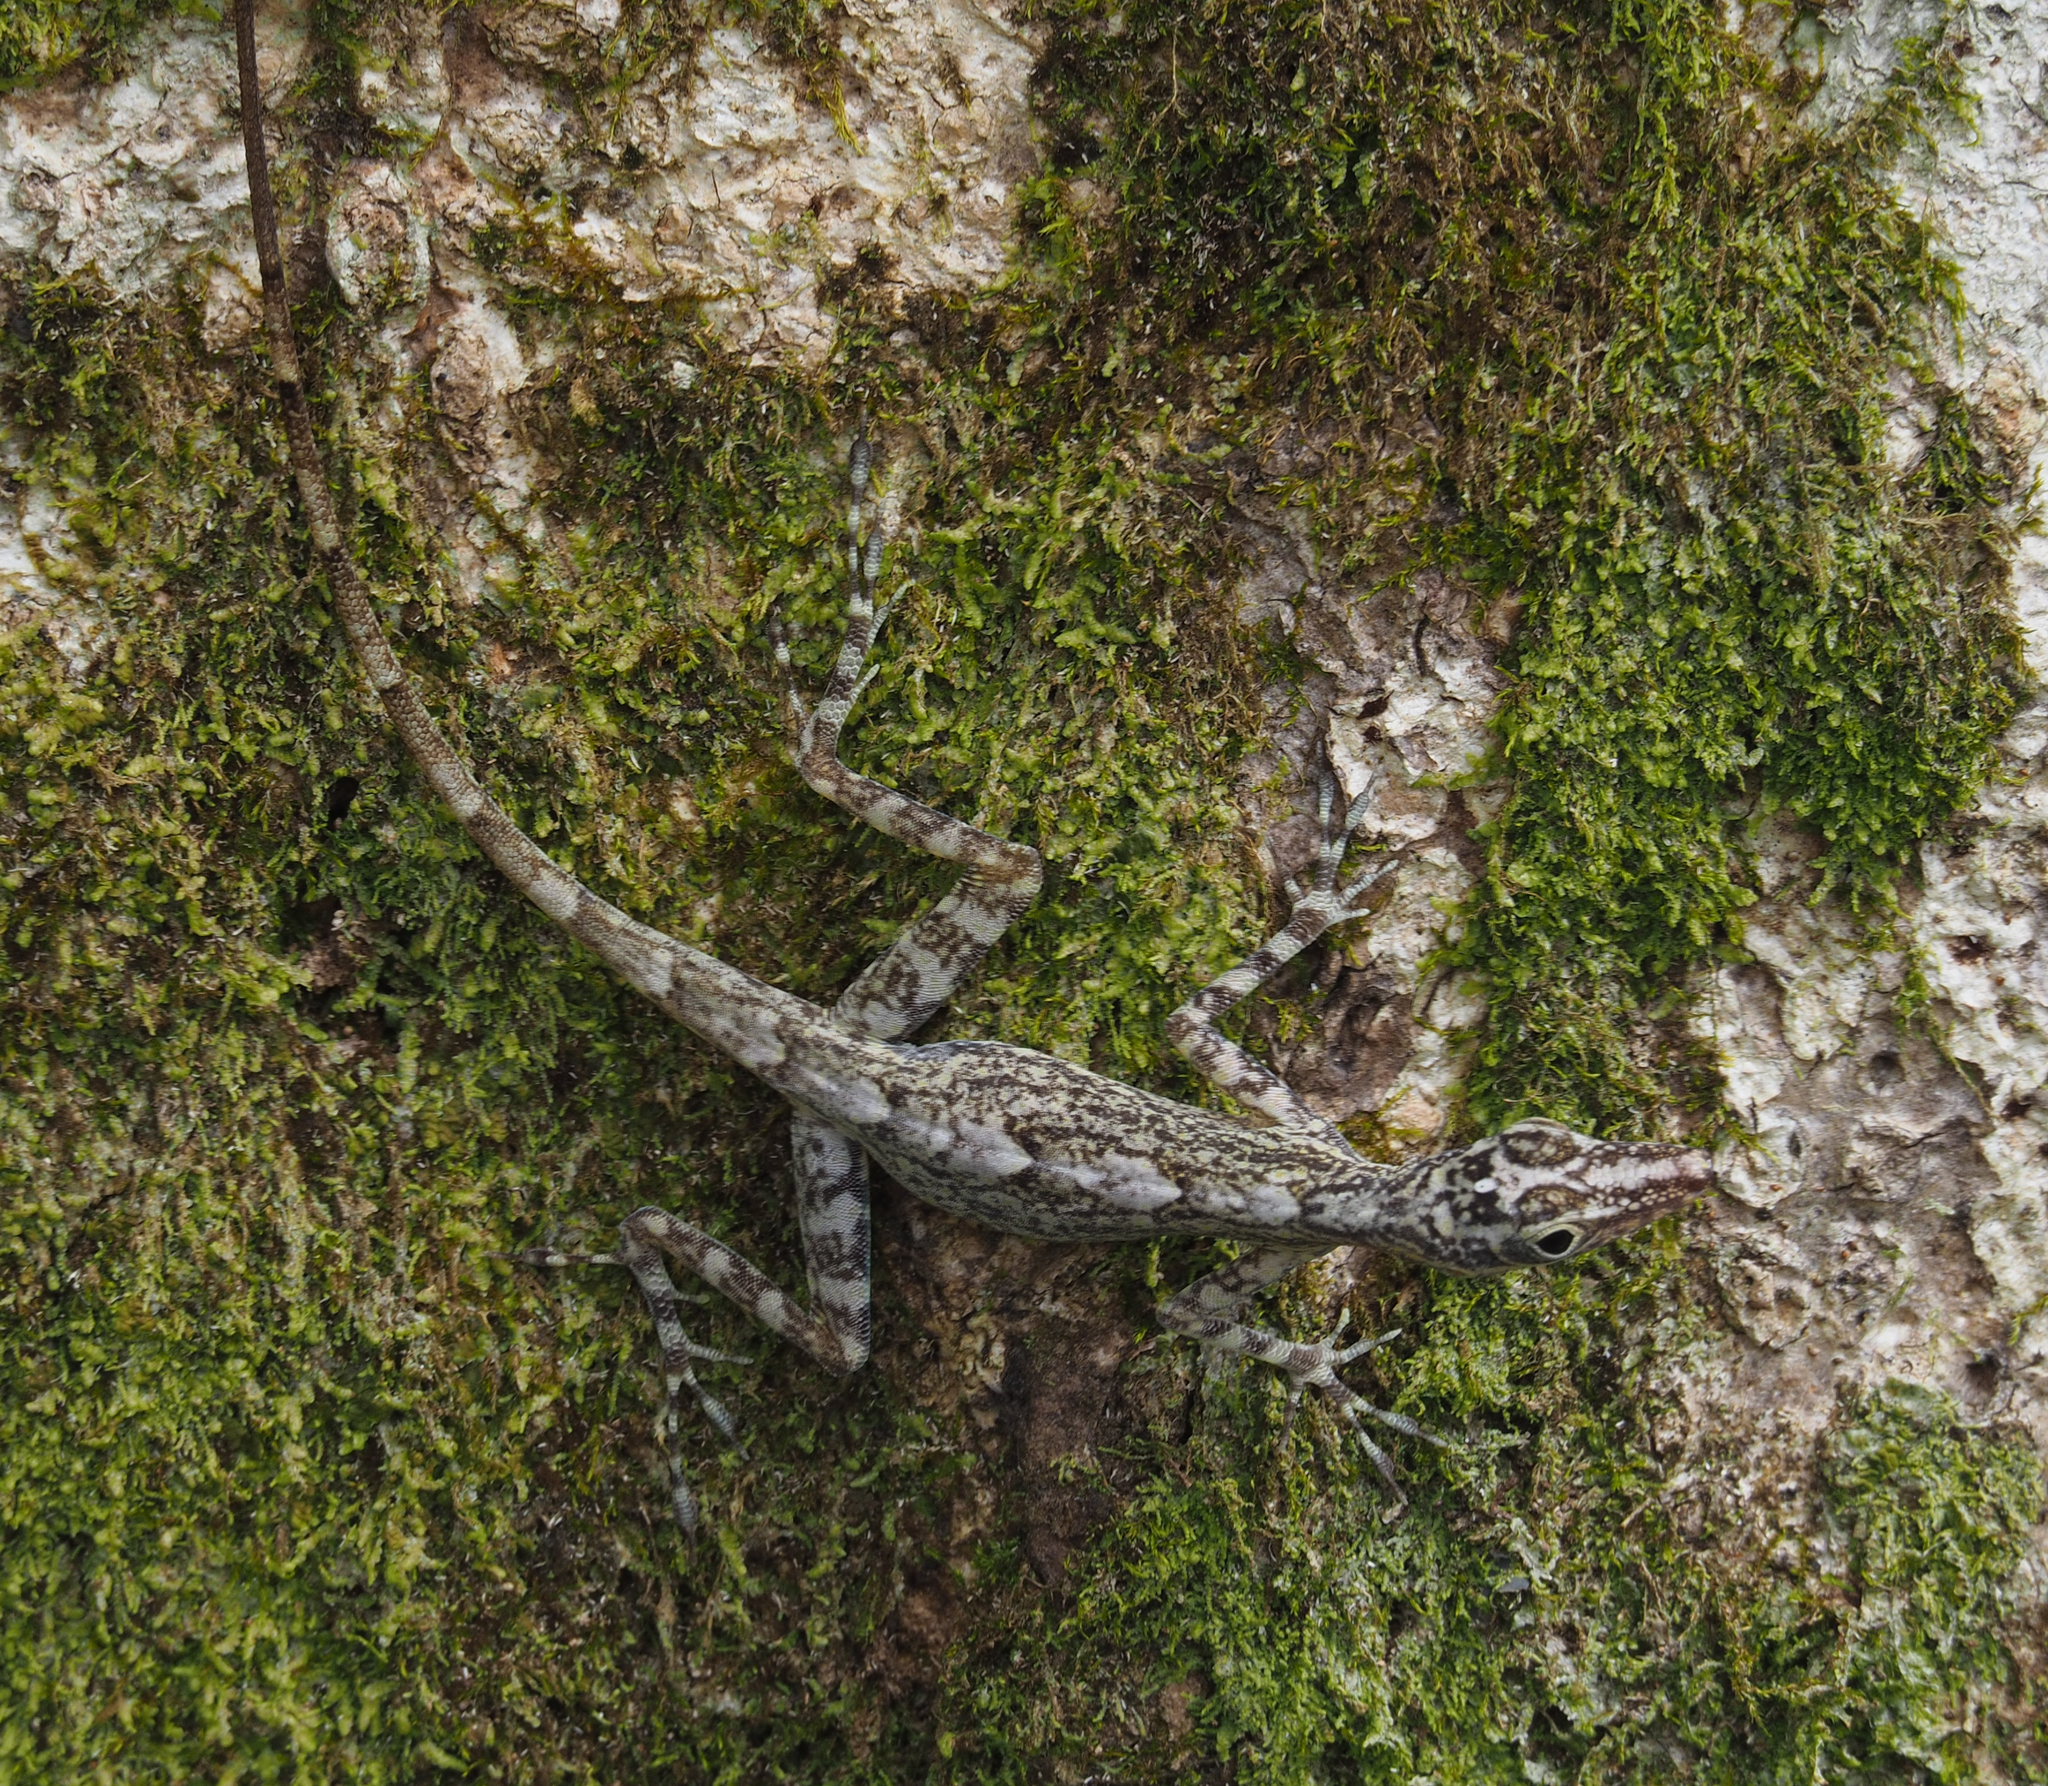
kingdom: Animalia
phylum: Chordata
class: Squamata
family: Dactyloidae
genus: Anolis
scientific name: Anolis argenteolus
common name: Guantanamo anole
